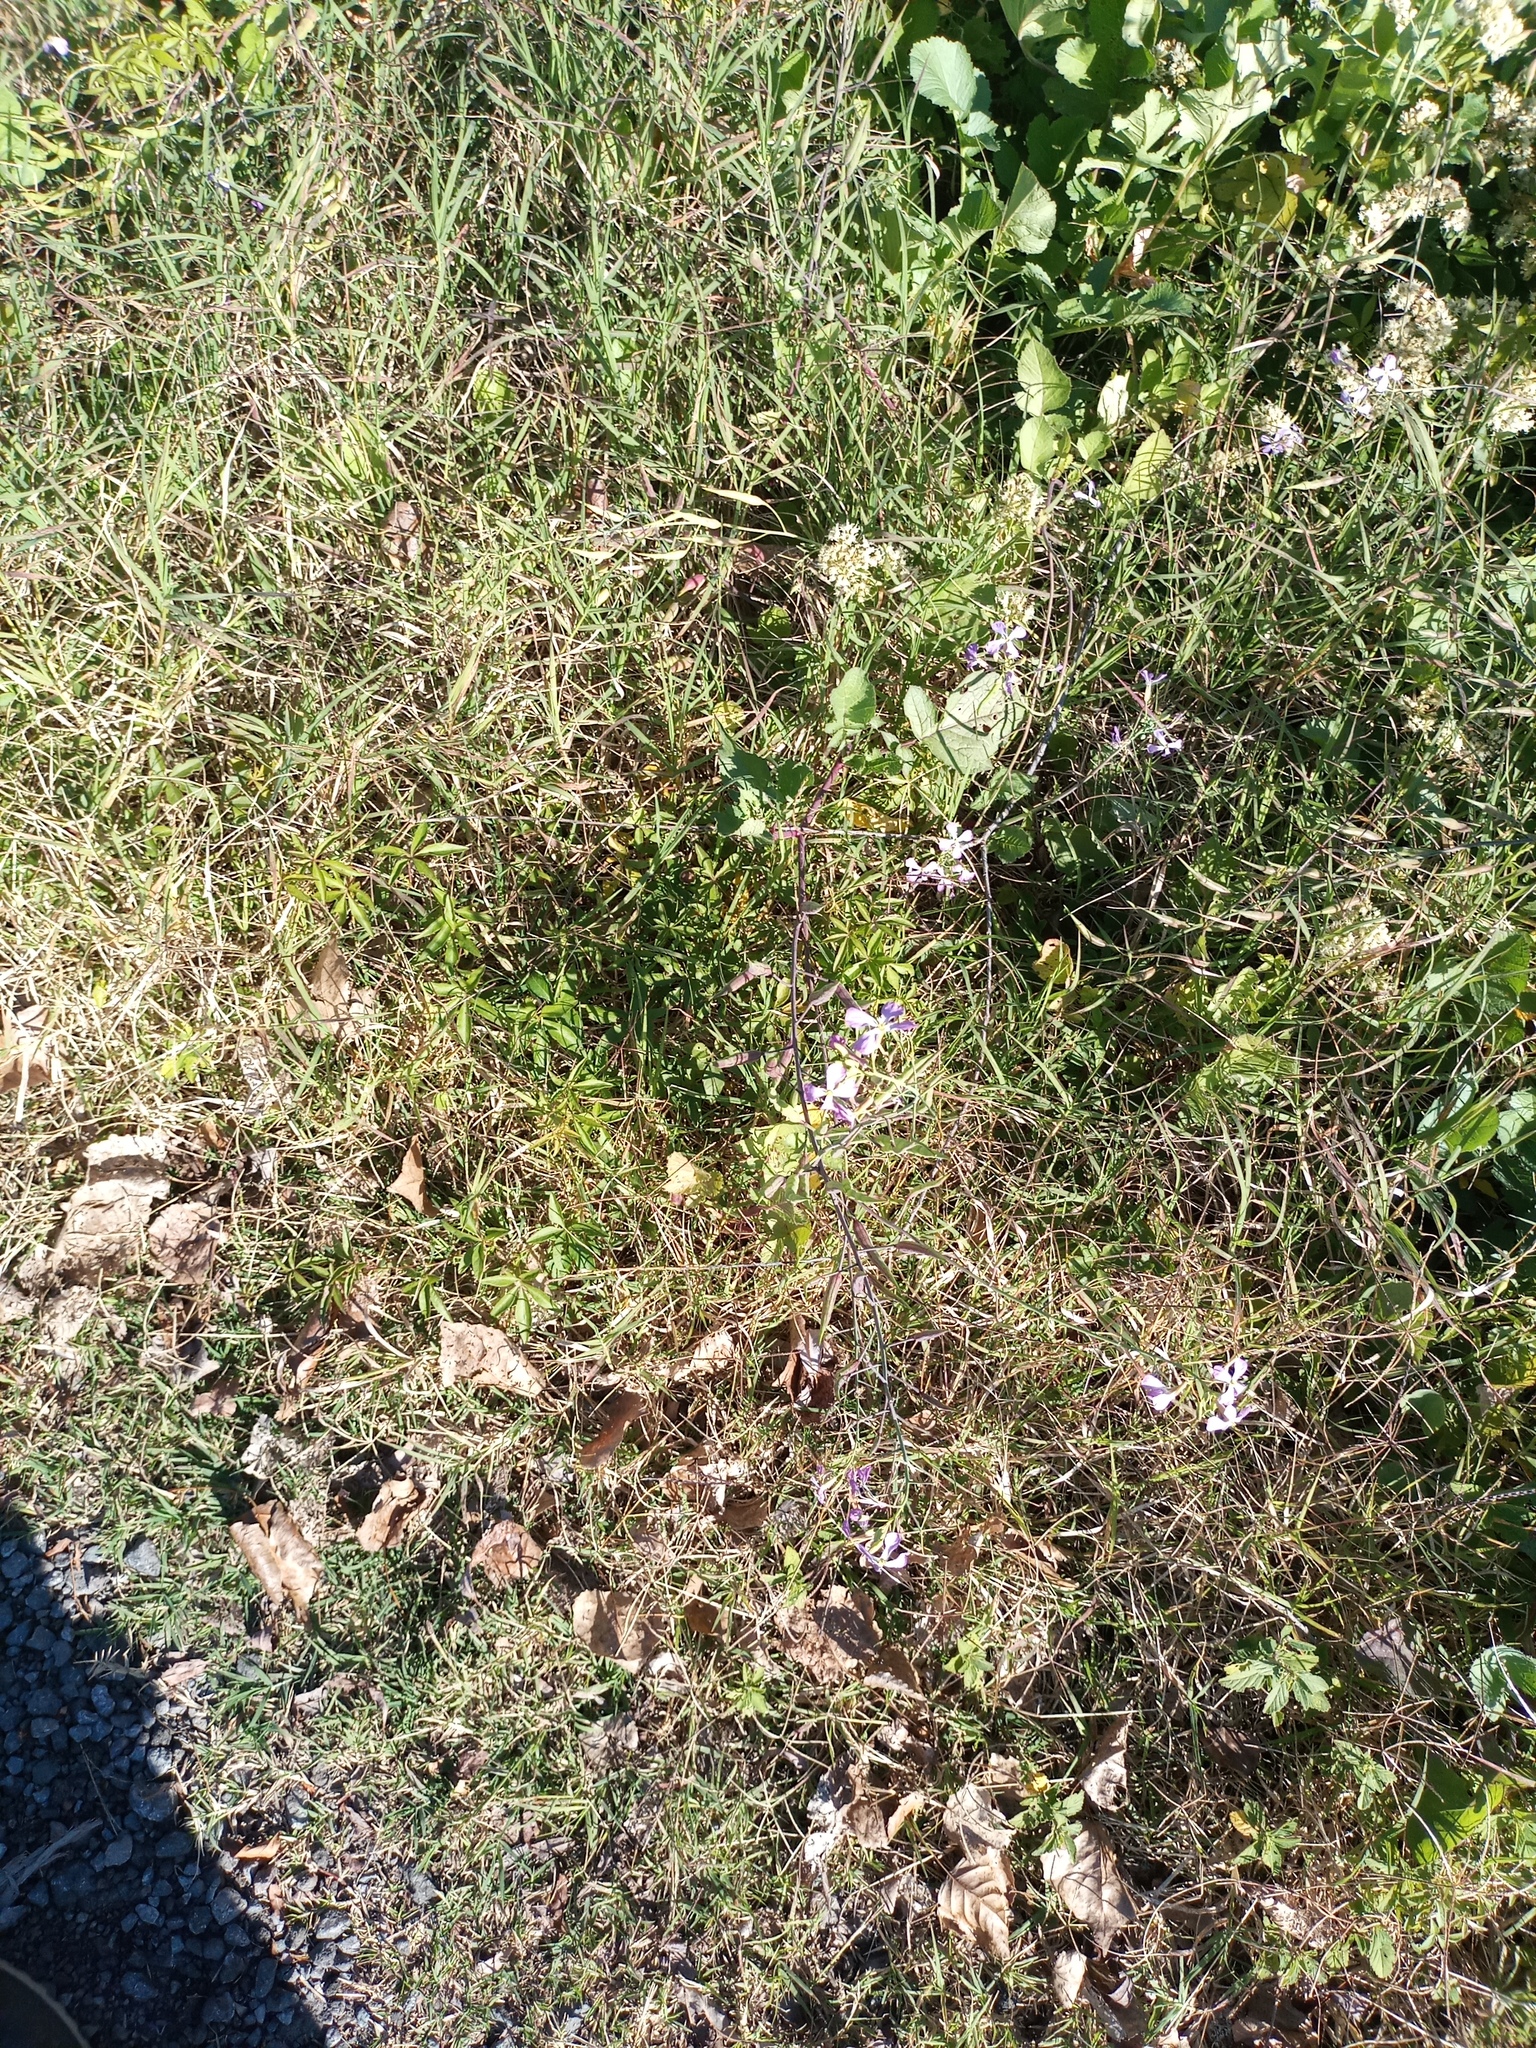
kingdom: Plantae
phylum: Tracheophyta
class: Magnoliopsida
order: Brassicales
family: Brassicaceae
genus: Raphanus
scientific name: Raphanus sativus
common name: Cultivated radish
